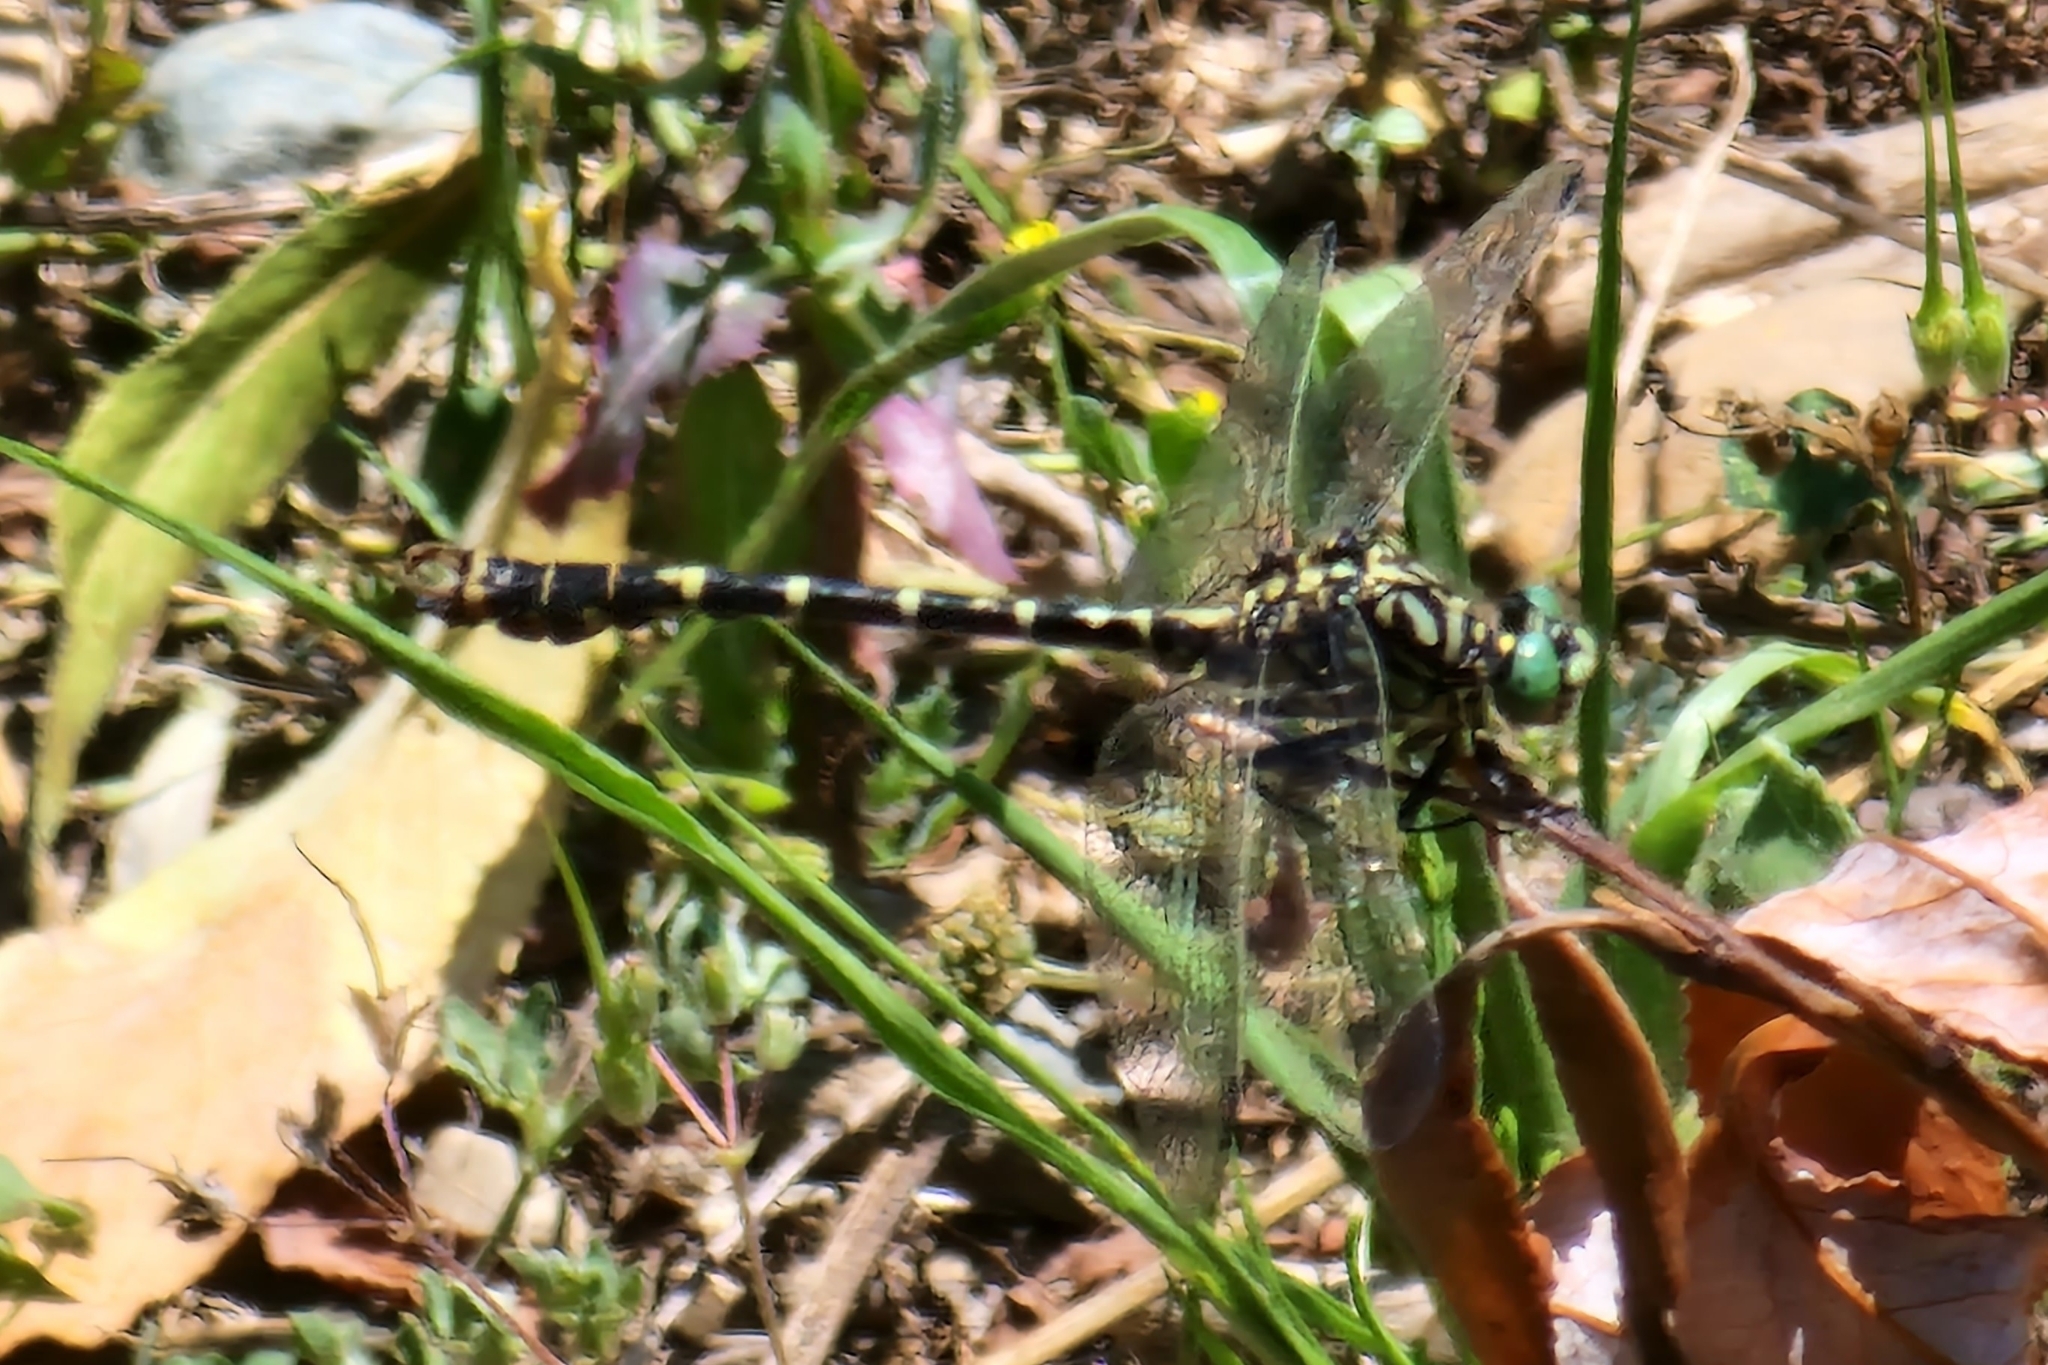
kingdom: Animalia
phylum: Arthropoda
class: Insecta
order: Odonata
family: Gomphidae
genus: Onychogomphus
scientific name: Onychogomphus forcipatus
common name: Small pincertail
